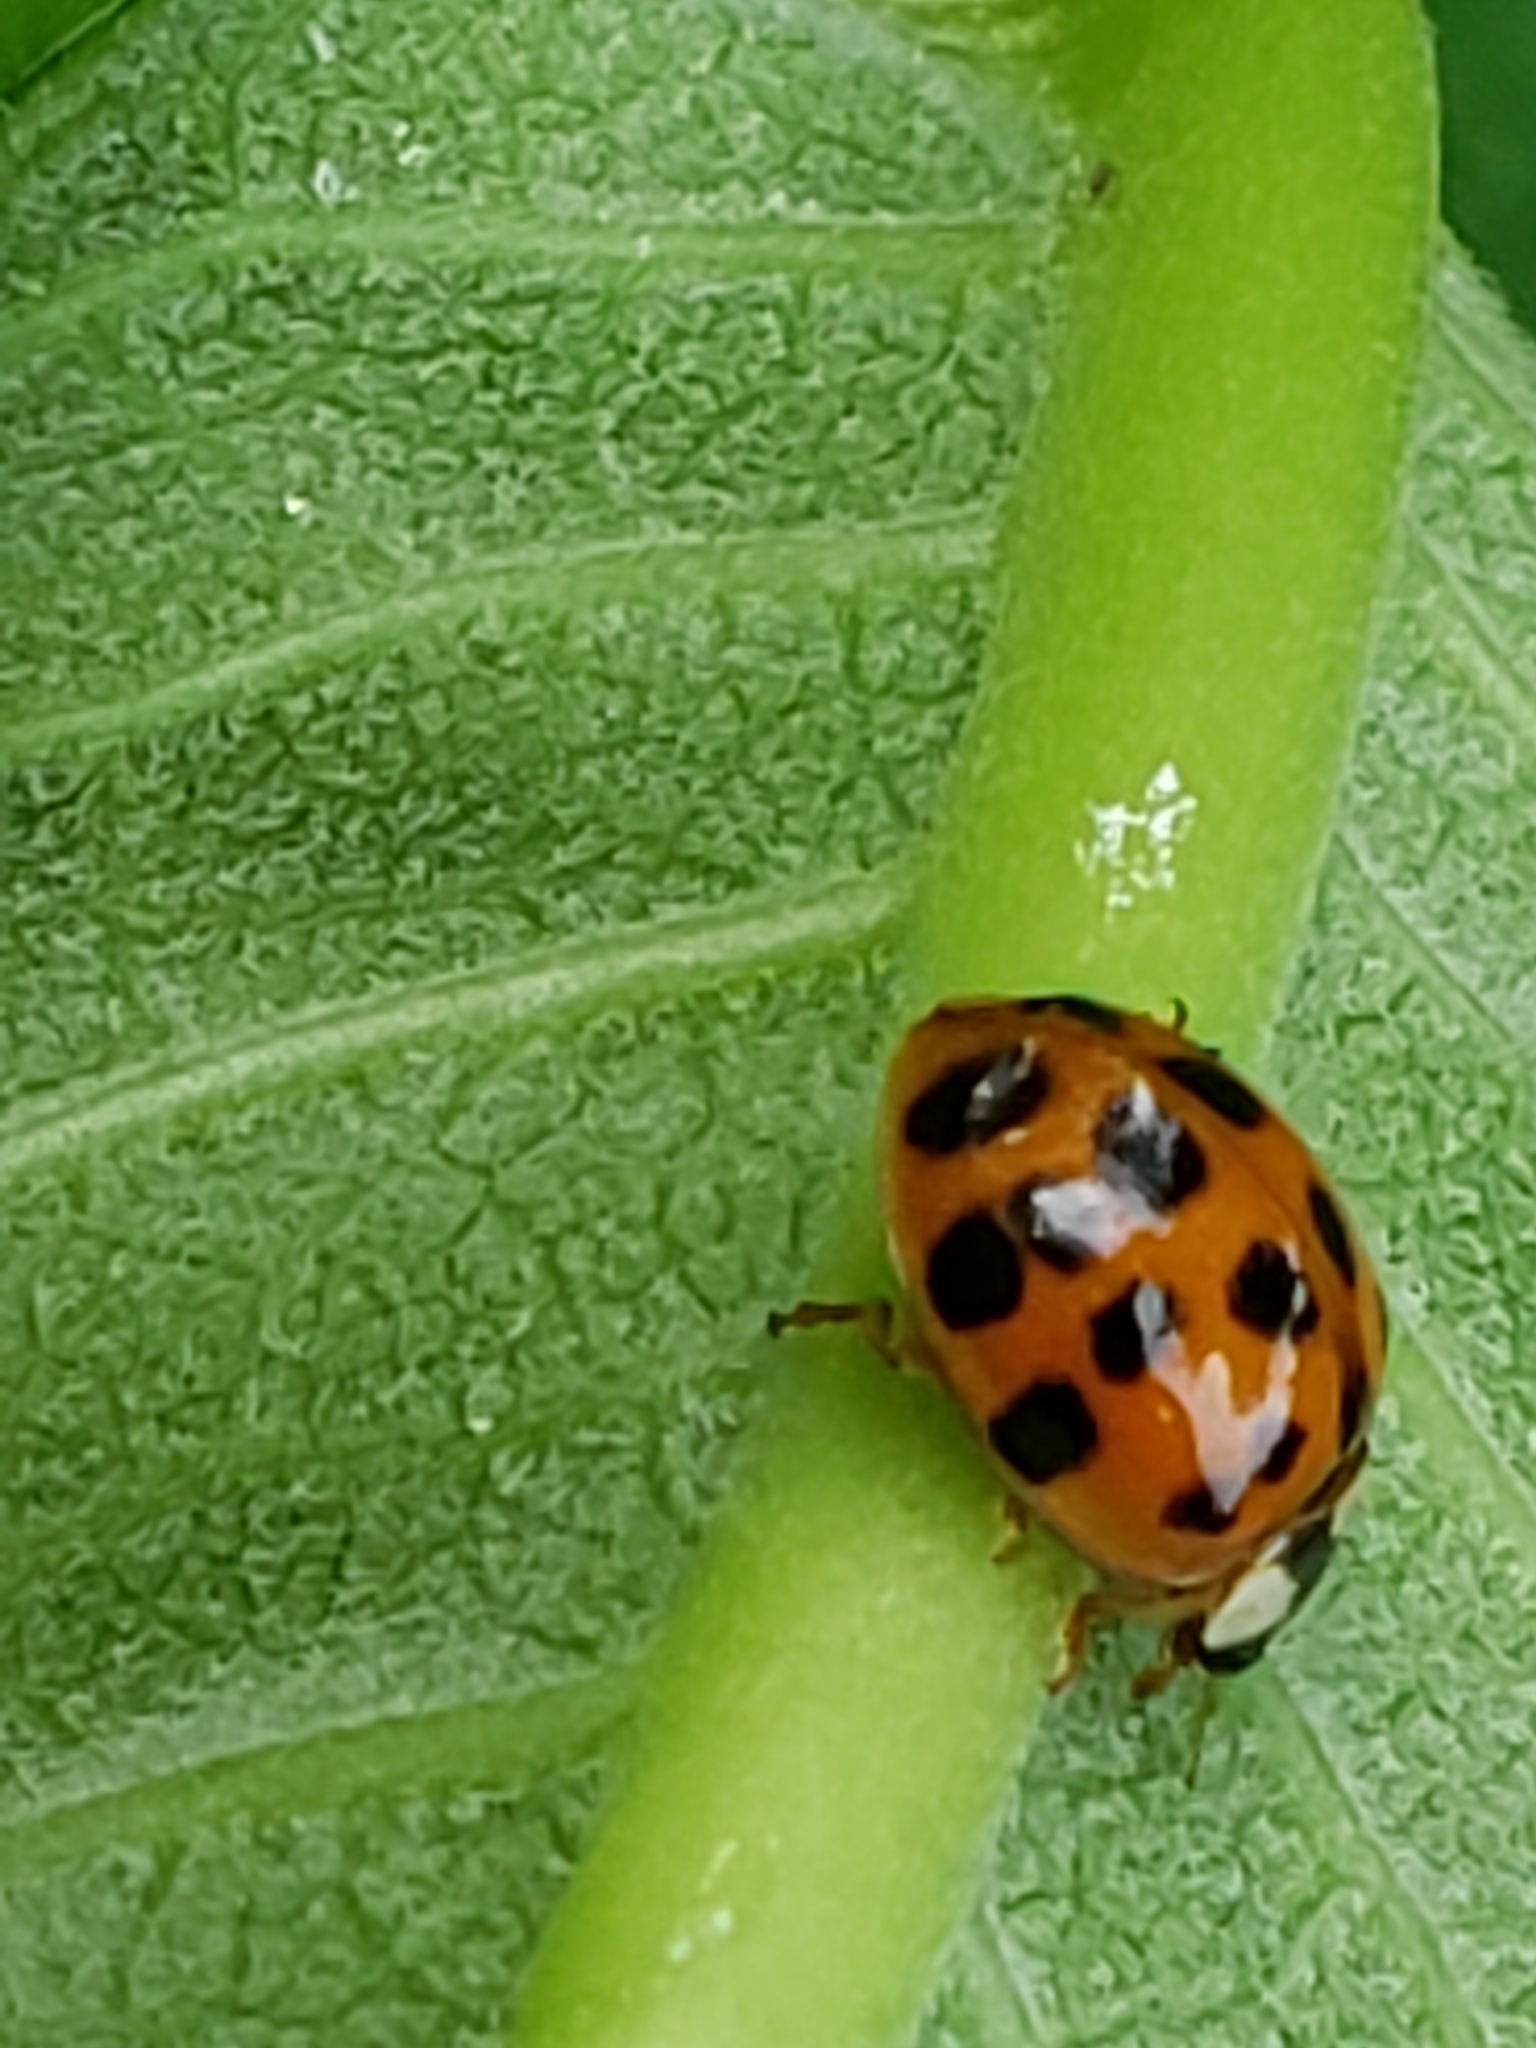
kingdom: Animalia
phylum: Arthropoda
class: Insecta
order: Coleoptera
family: Coccinellidae
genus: Harmonia
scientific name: Harmonia axyridis
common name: Harlequin ladybird
